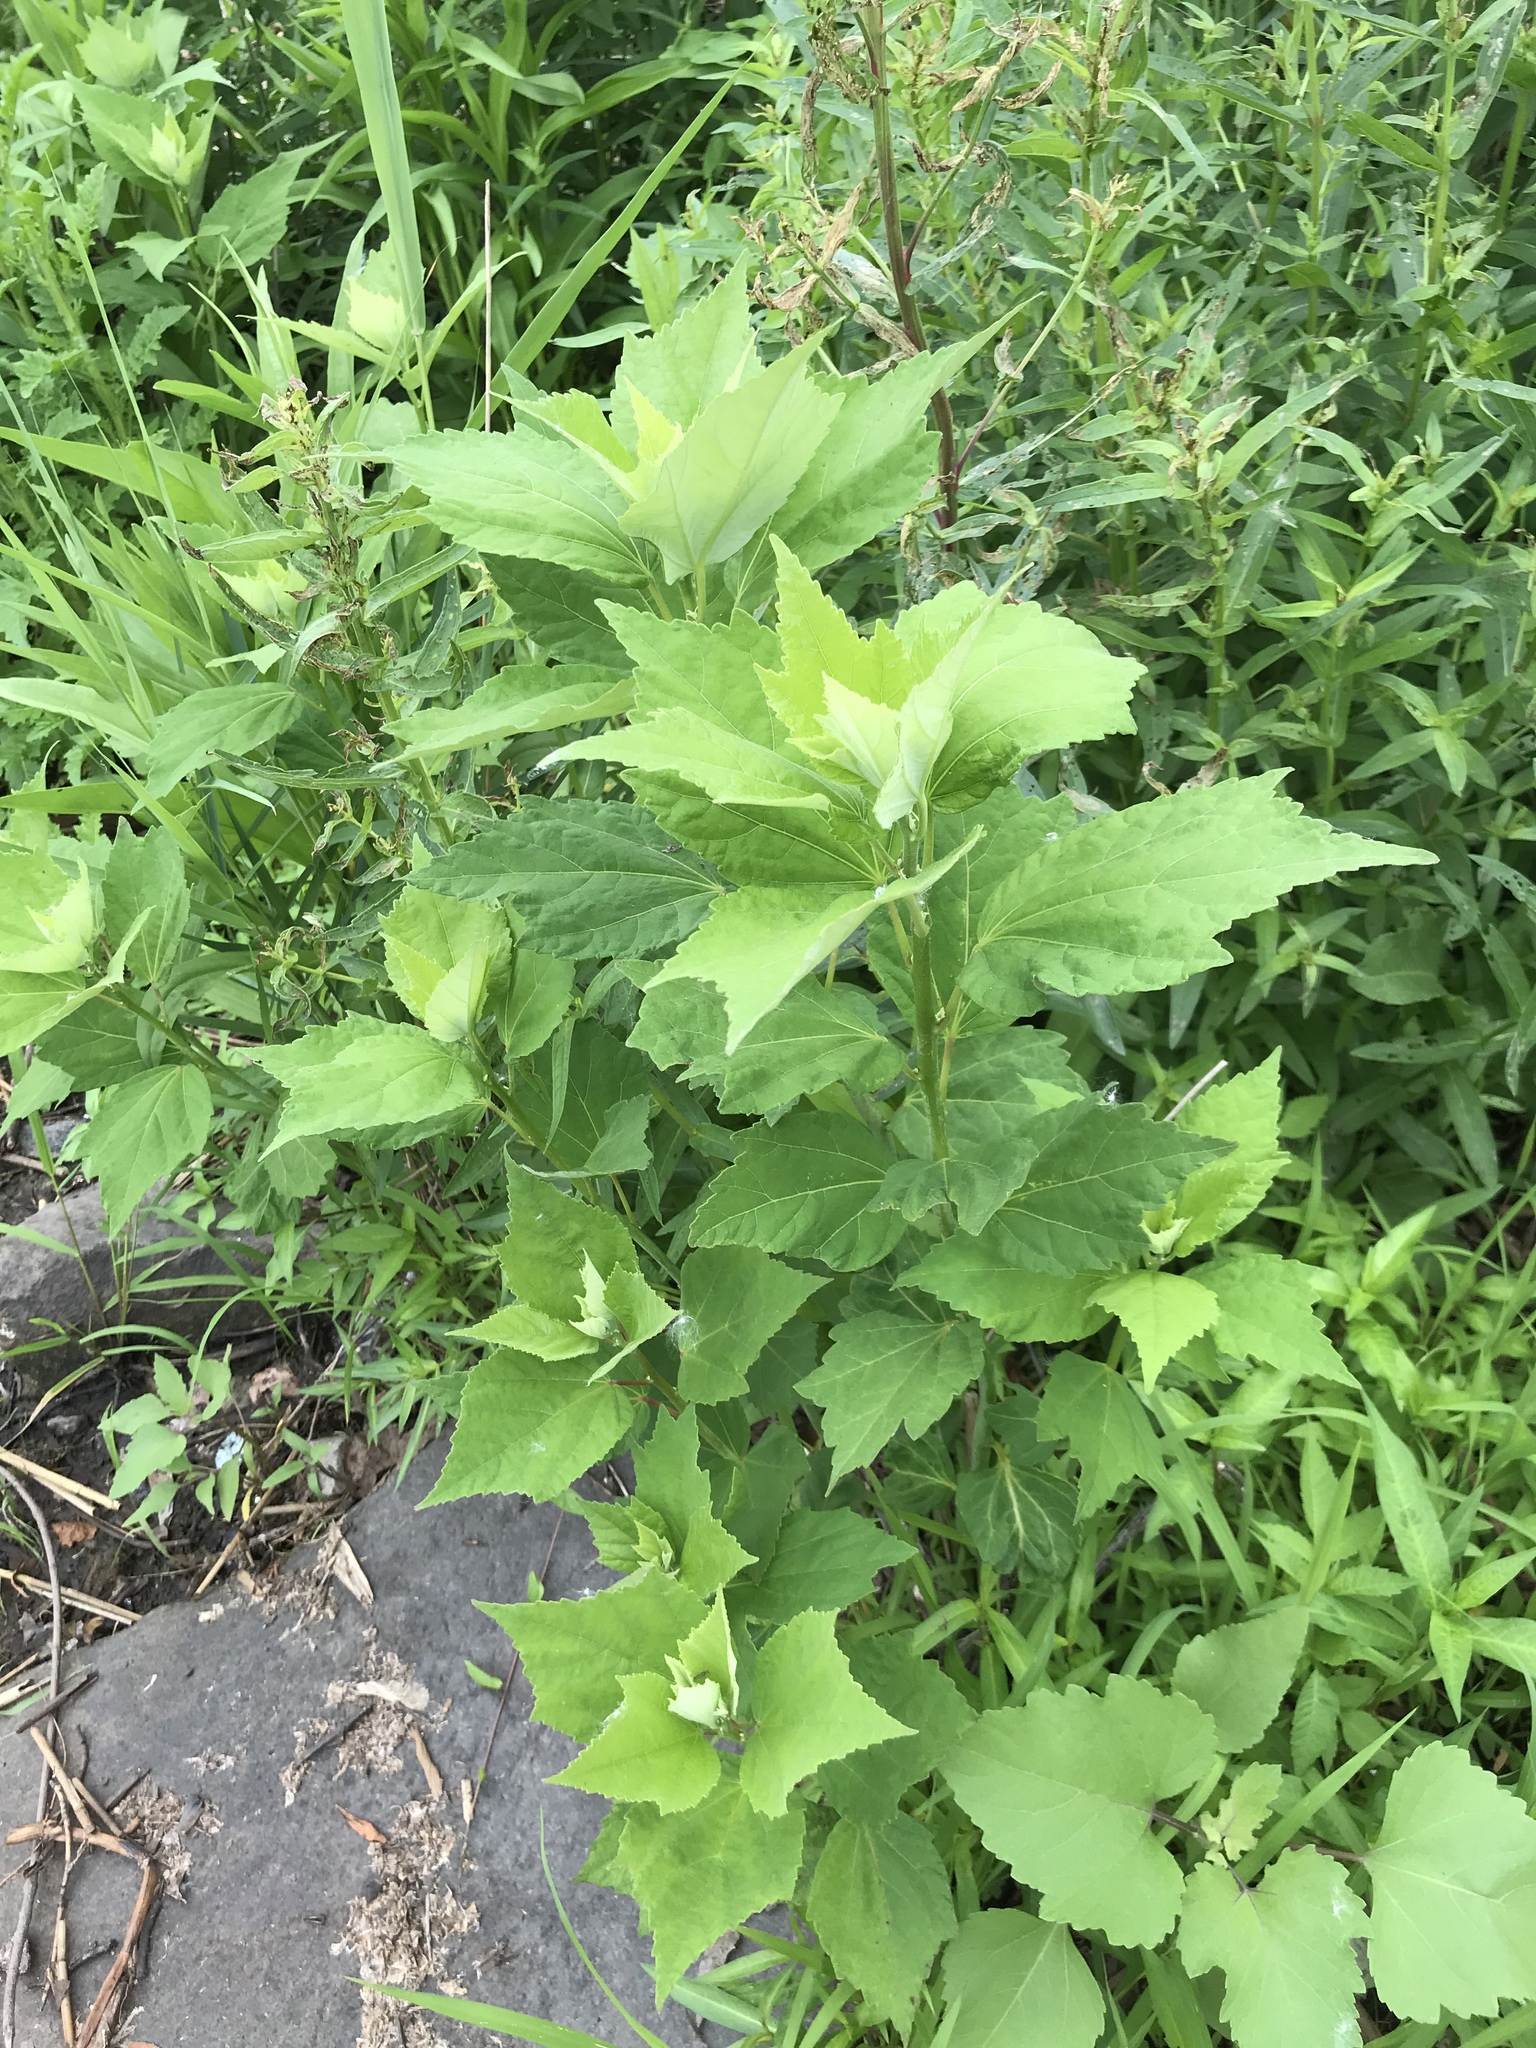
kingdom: Plantae
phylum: Tracheophyta
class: Magnoliopsida
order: Malvales
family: Malvaceae
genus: Hibiscus
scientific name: Hibiscus moscheutos
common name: Common rose-mallow
